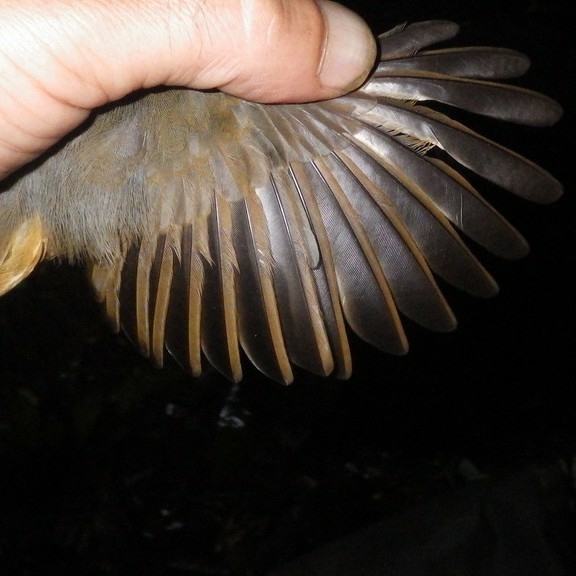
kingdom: Animalia
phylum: Chordata
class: Aves
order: Passeriformes
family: Thamnophilidae
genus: Thamnomanes
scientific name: Thamnomanes ardesiacus
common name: Dusky-throated antshrike
